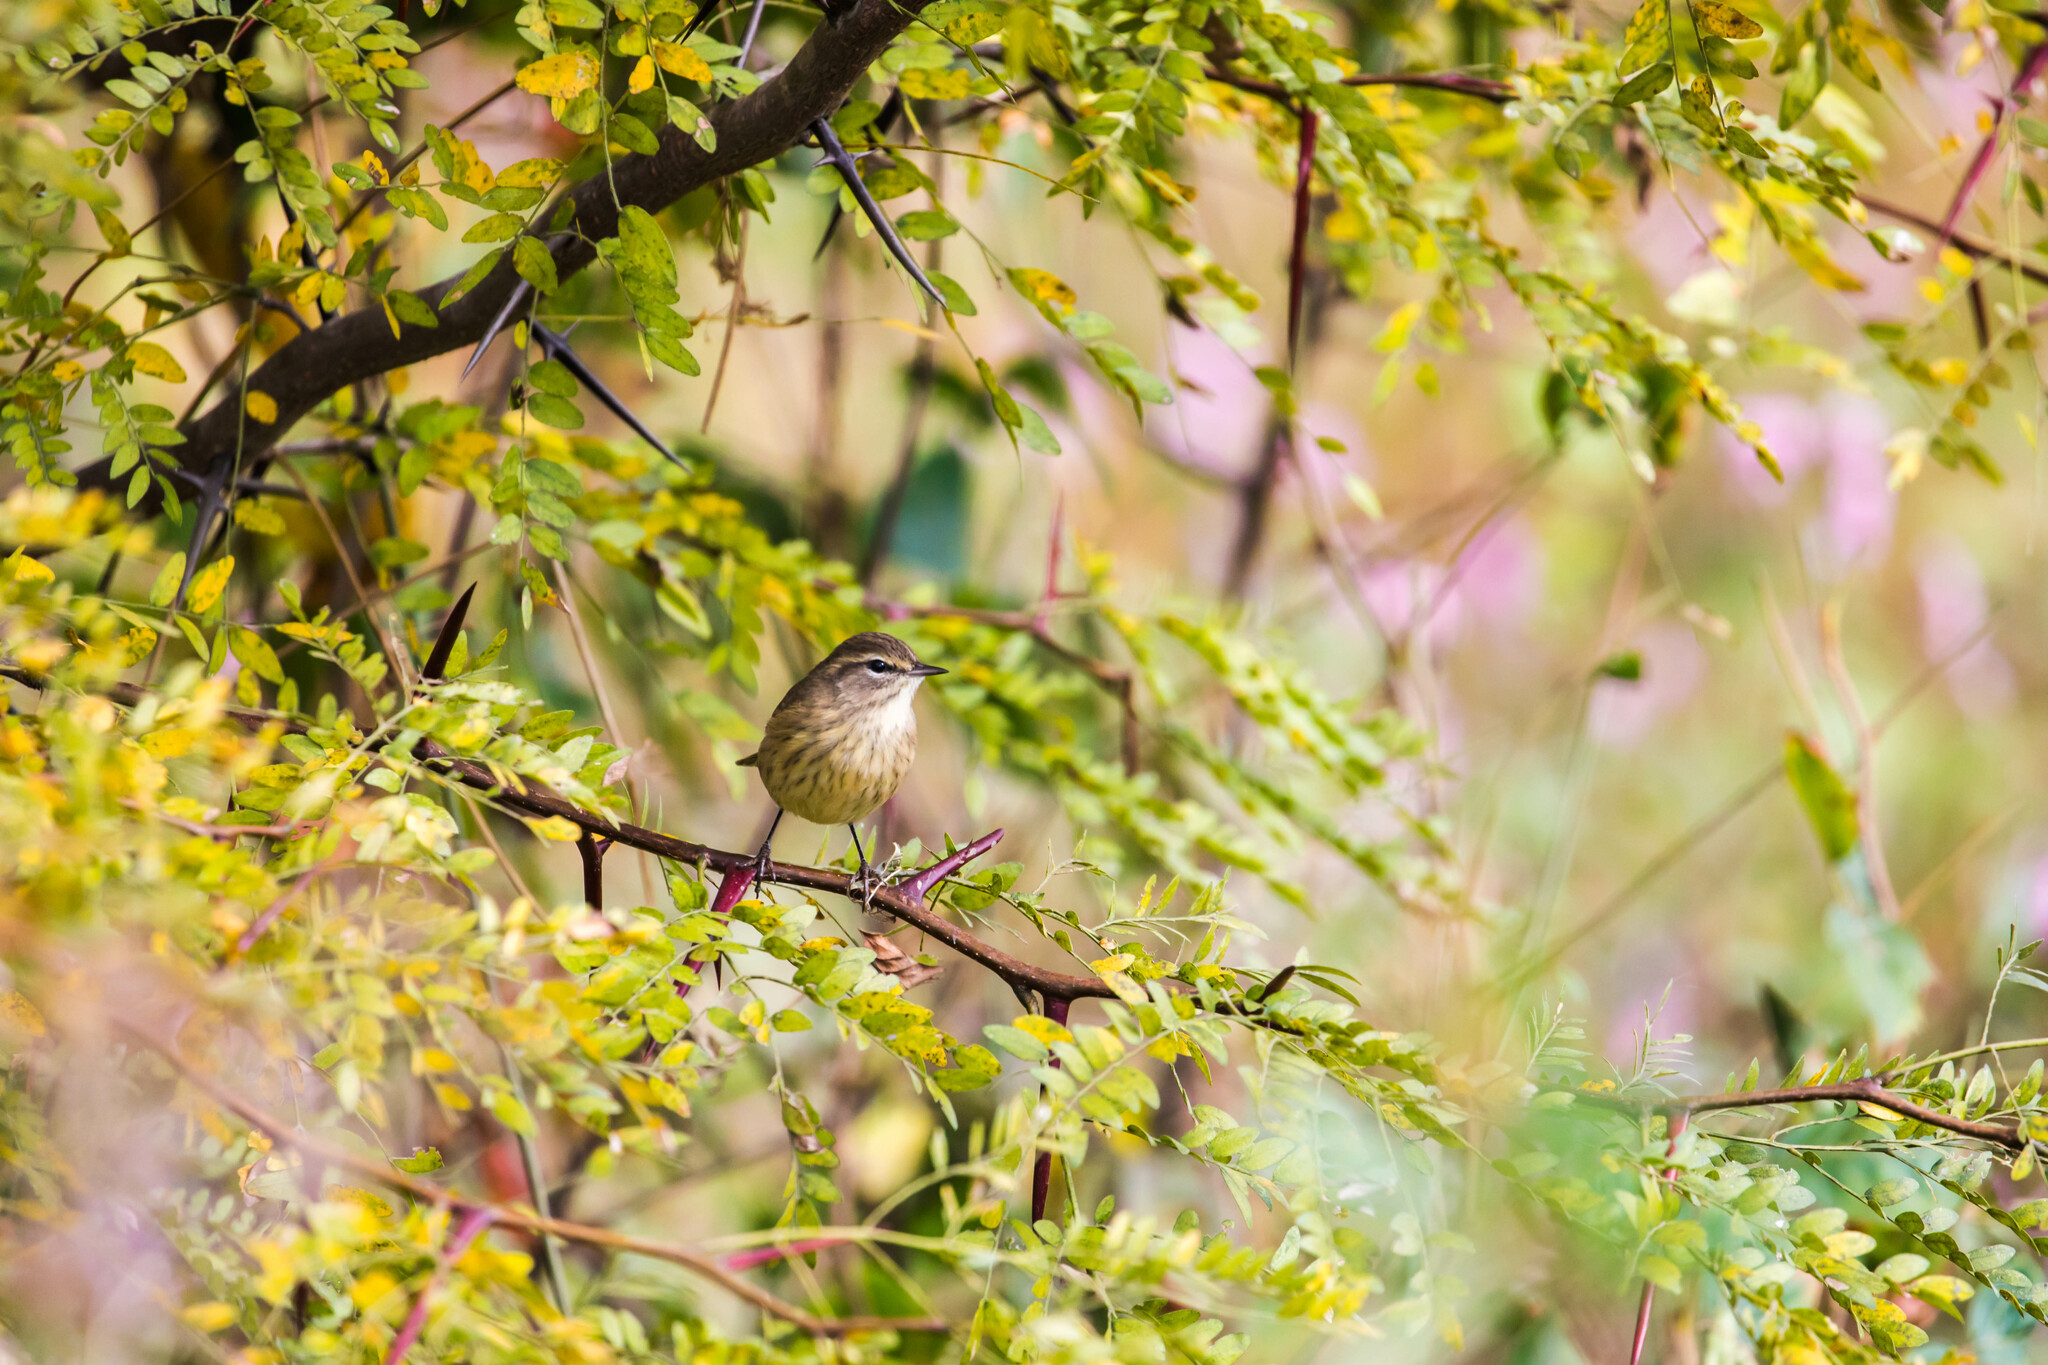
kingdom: Animalia
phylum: Chordata
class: Aves
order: Passeriformes
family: Parulidae
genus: Setophaga
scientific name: Setophaga palmarum
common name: Palm warbler
